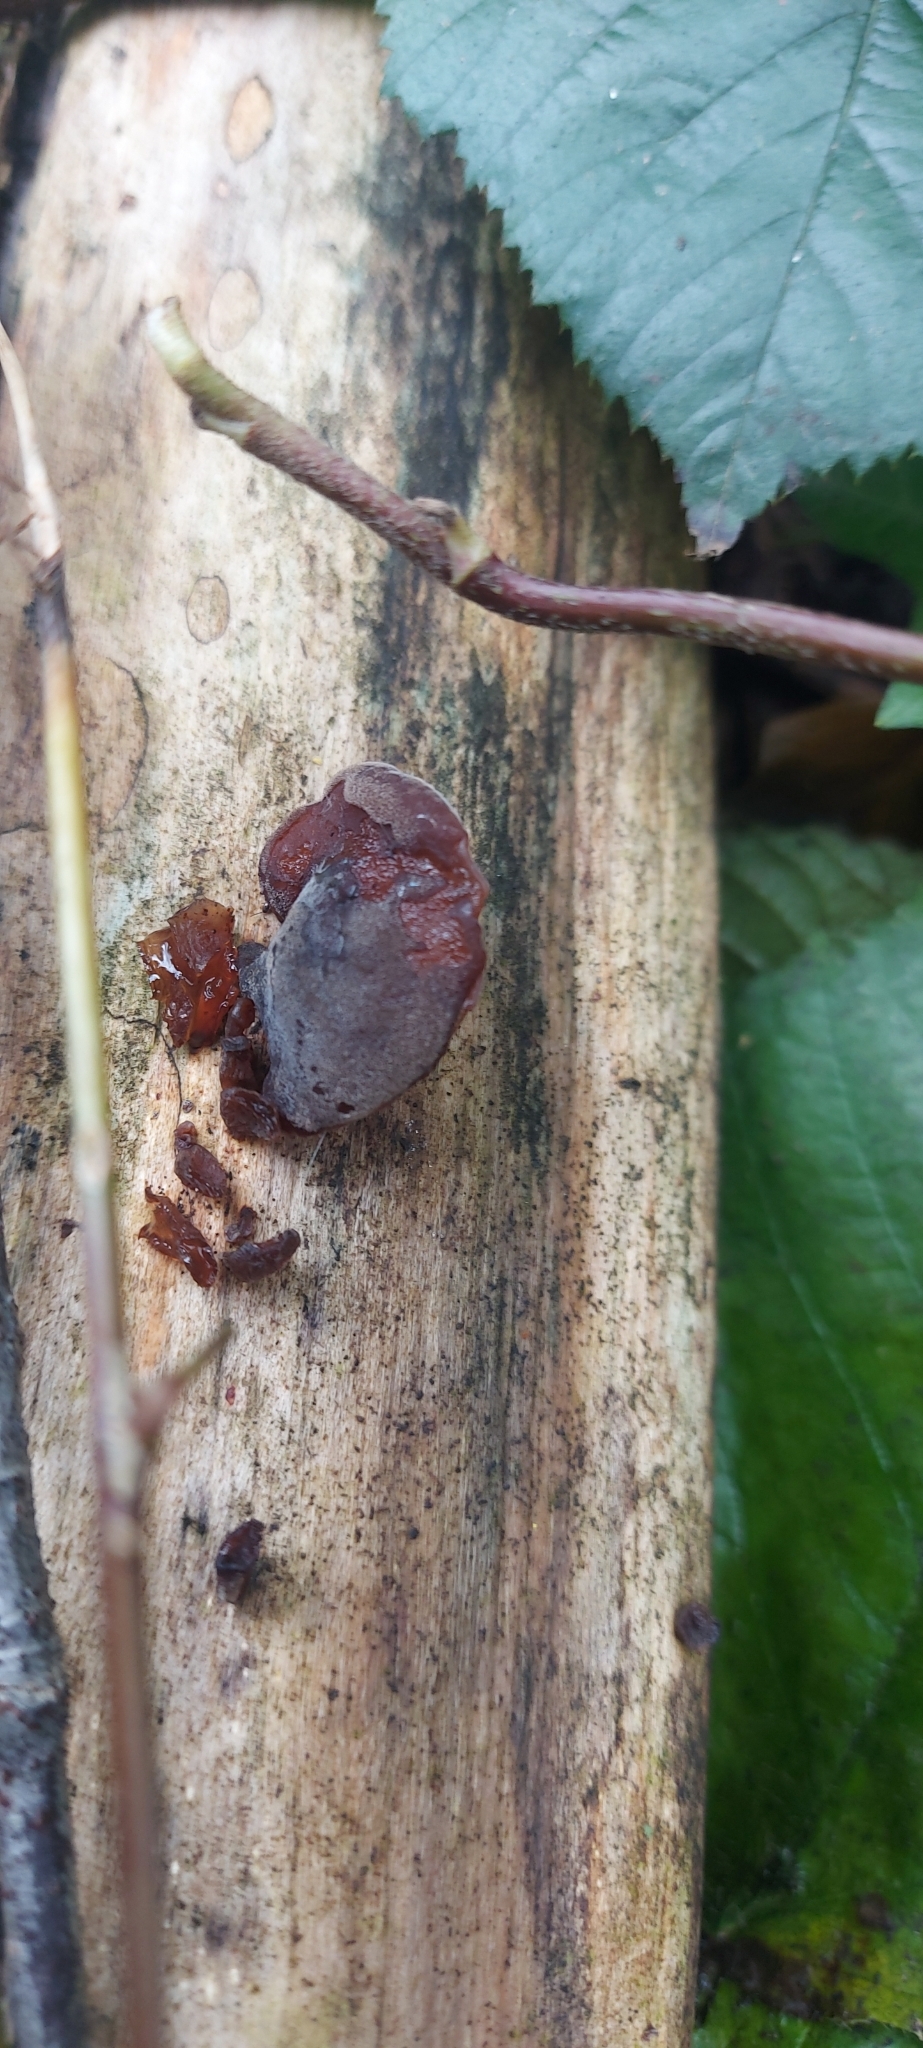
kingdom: Fungi
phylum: Basidiomycota
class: Agaricomycetes
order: Auriculariales
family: Auriculariaceae
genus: Auricularia
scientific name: Auricularia auricula-judae
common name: Jelly ear
